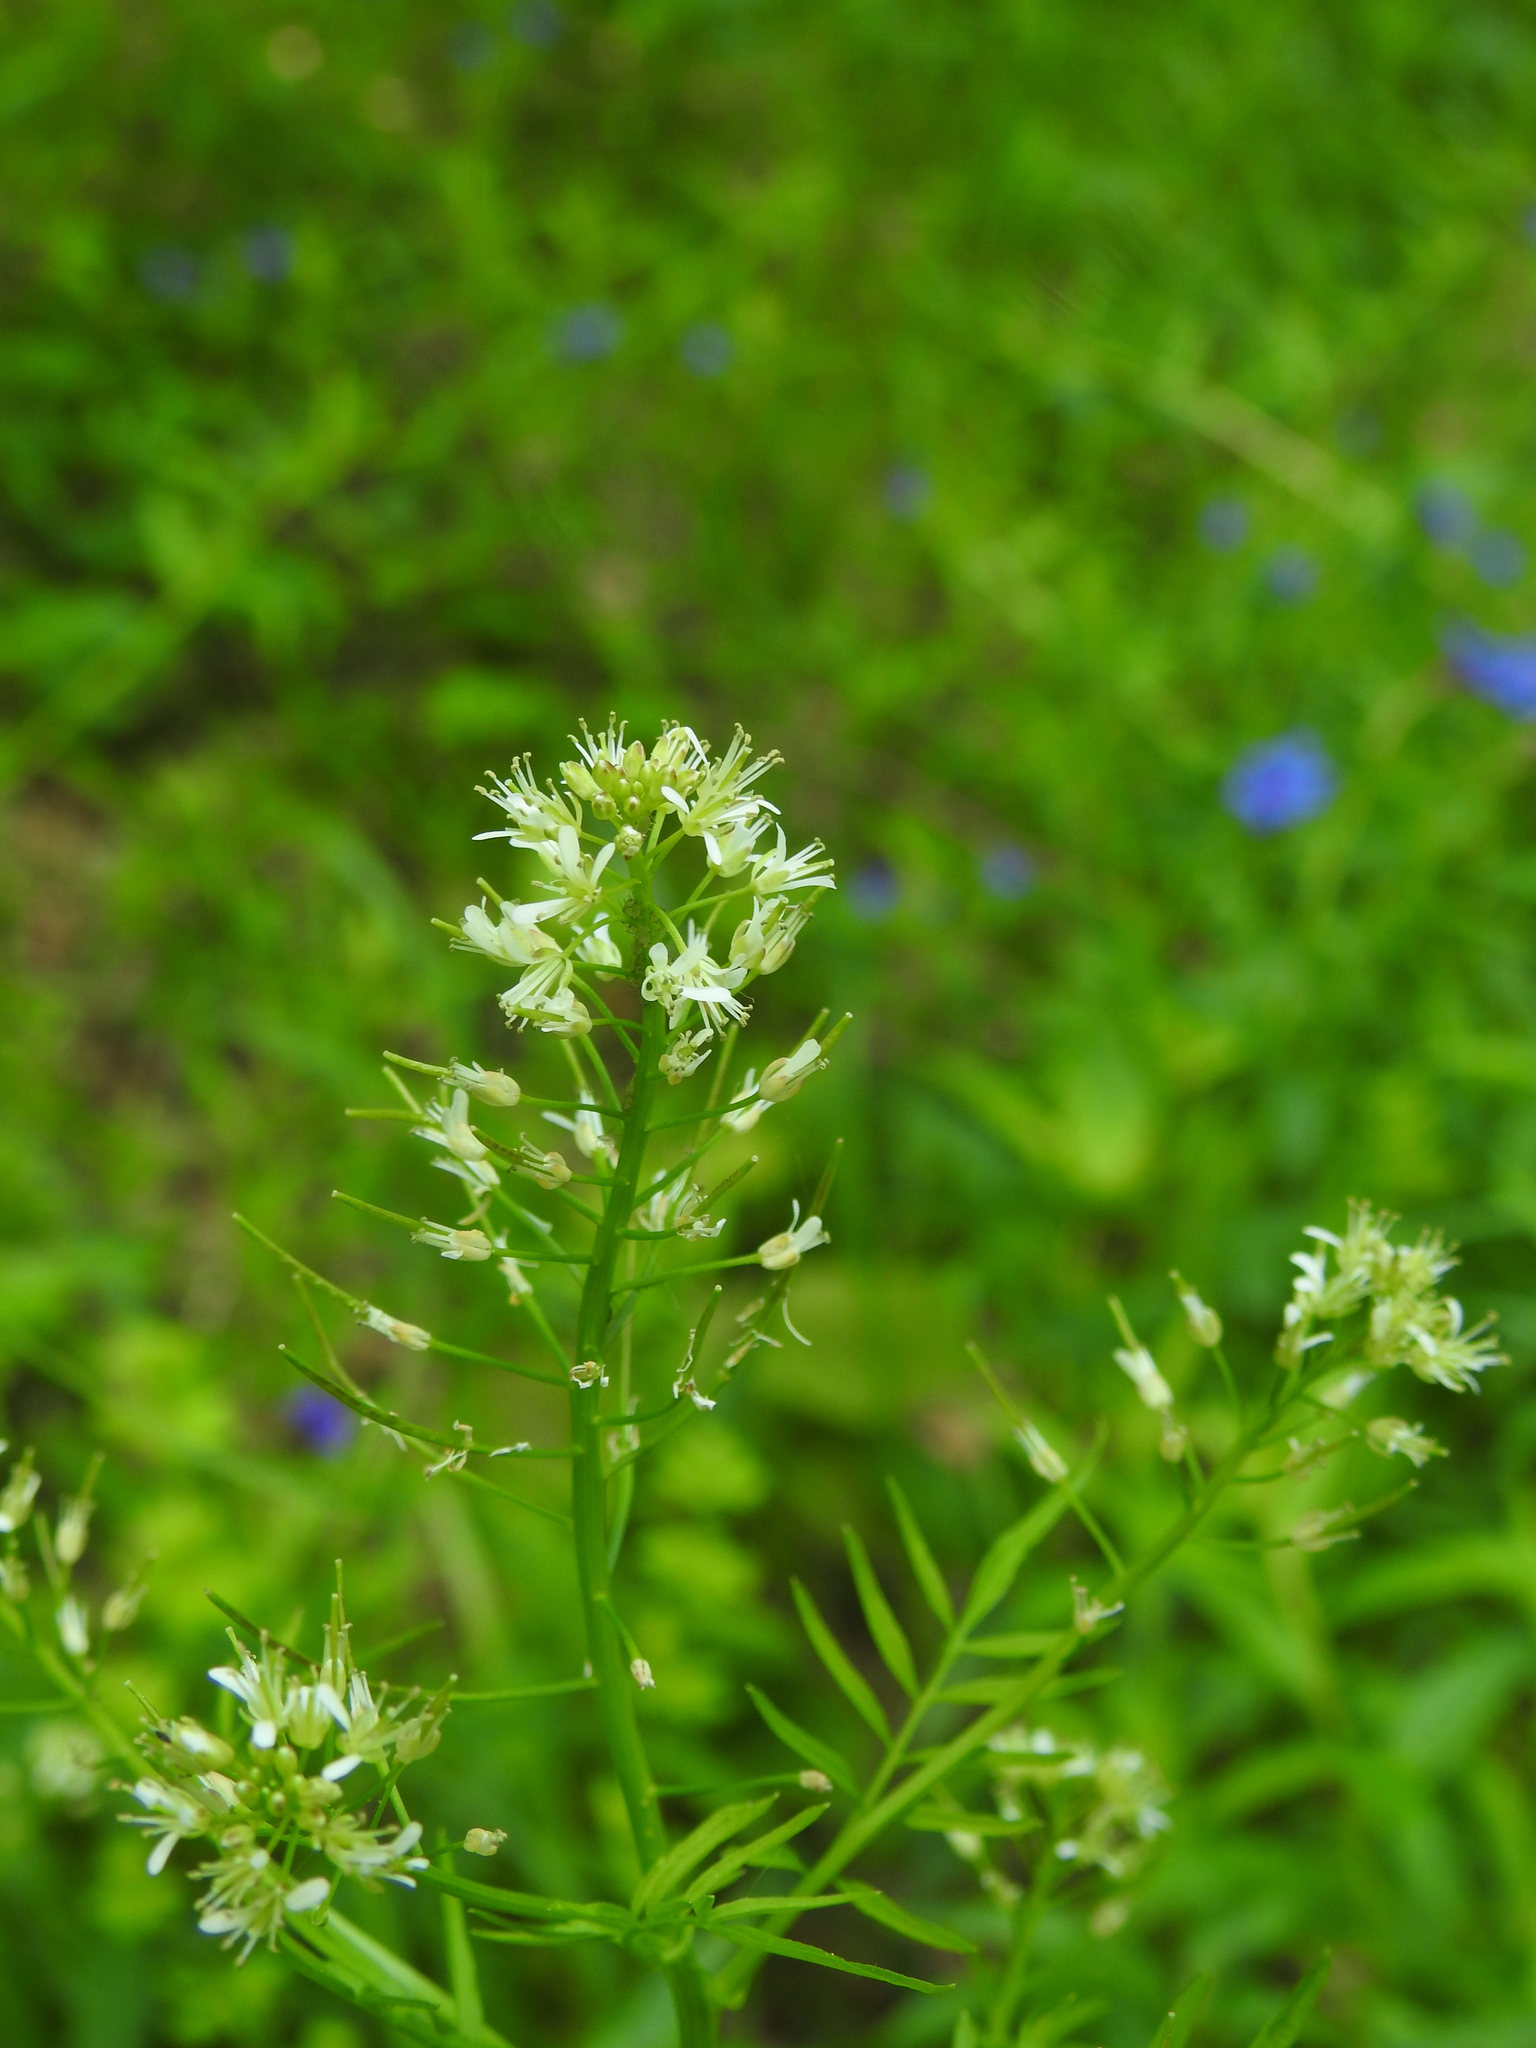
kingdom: Plantae
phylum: Tracheophyta
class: Magnoliopsida
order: Brassicales
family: Brassicaceae
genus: Cardamine
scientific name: Cardamine impatiens
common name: Narrow-leaved bitter-cress
